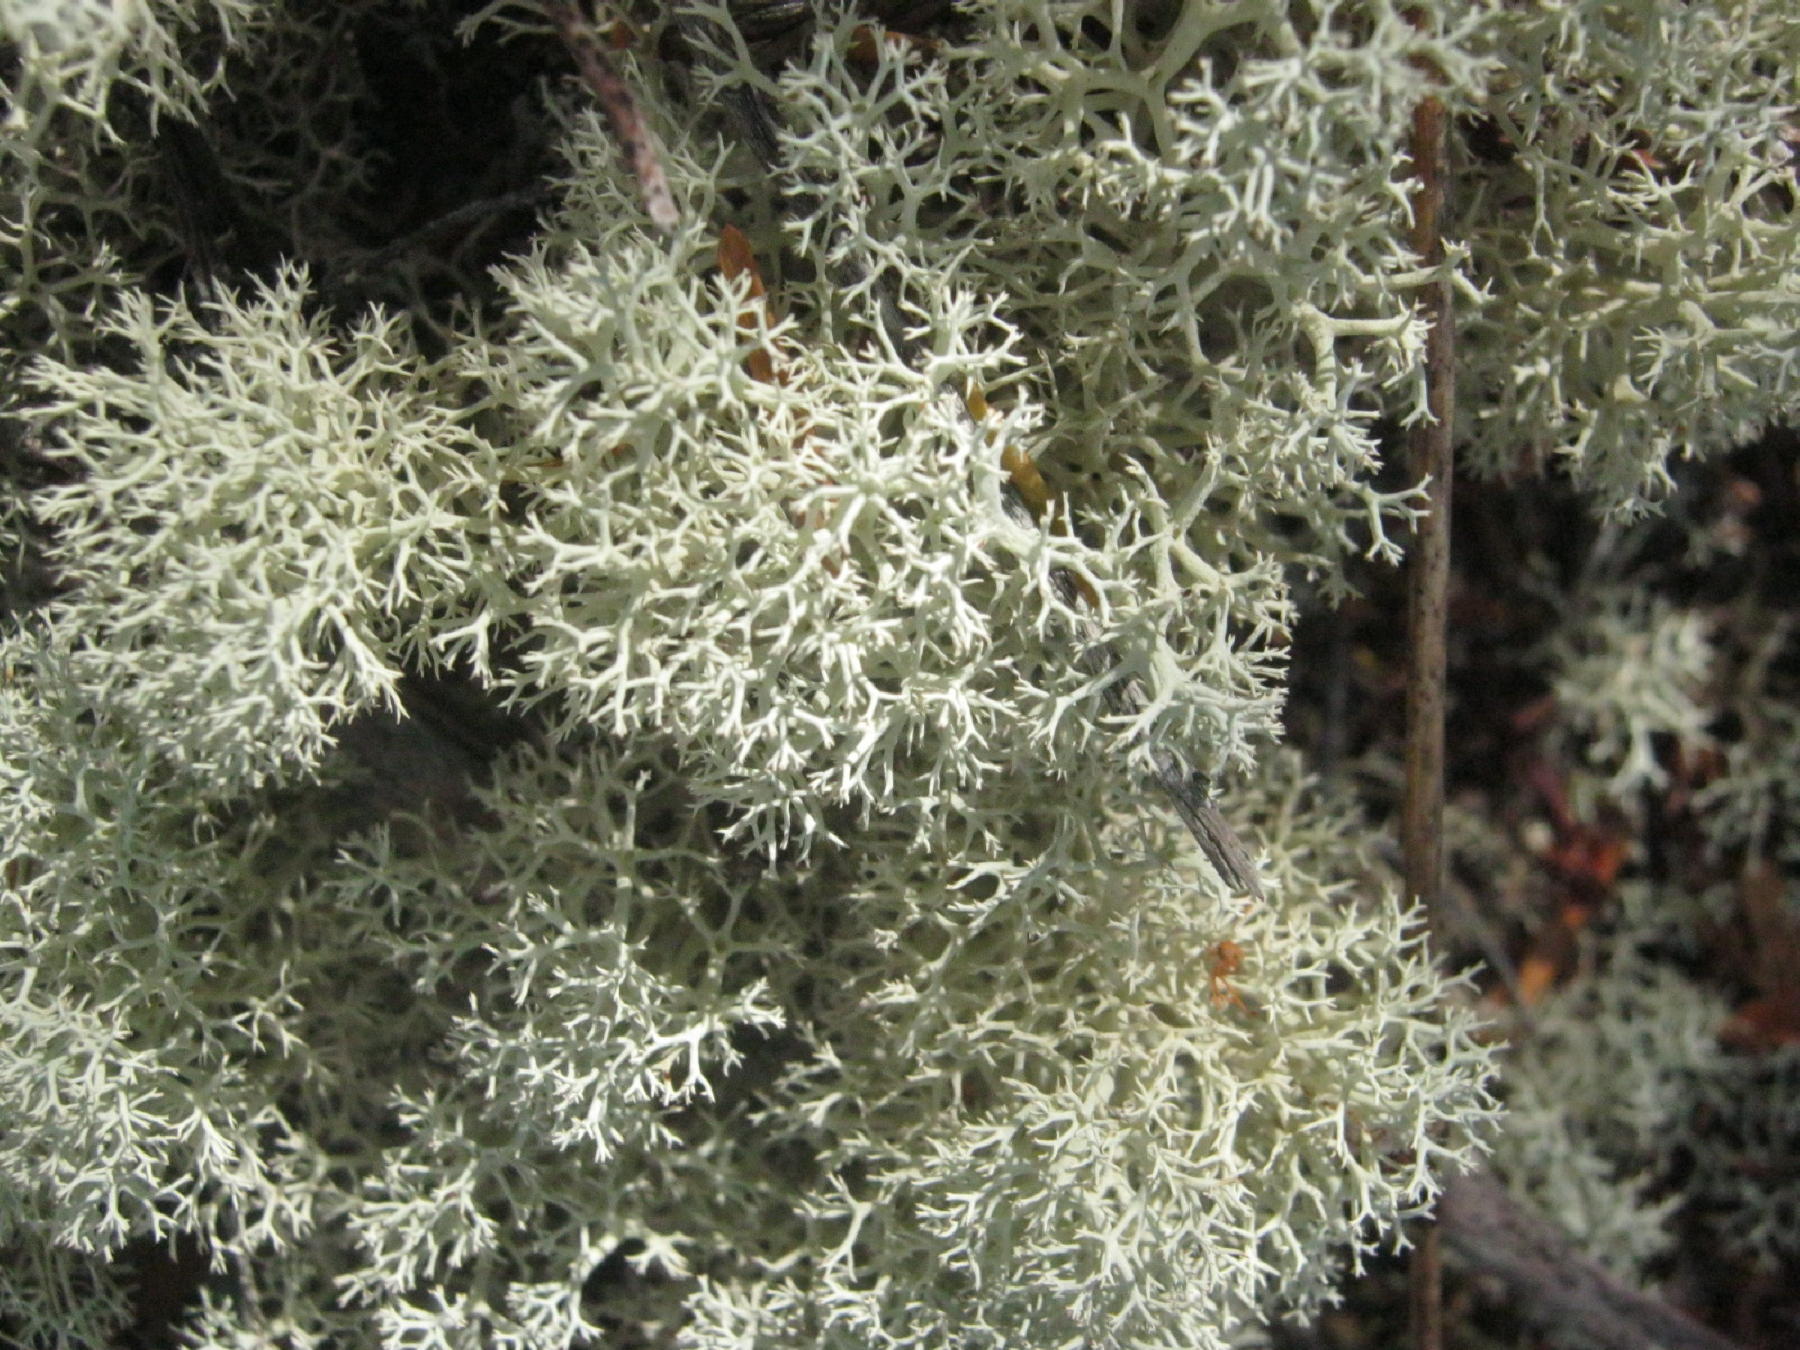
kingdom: Fungi
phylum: Ascomycota
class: Lecanoromycetes
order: Lecanorales
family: Cladoniaceae
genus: Cladonia
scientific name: Cladonia confusa
